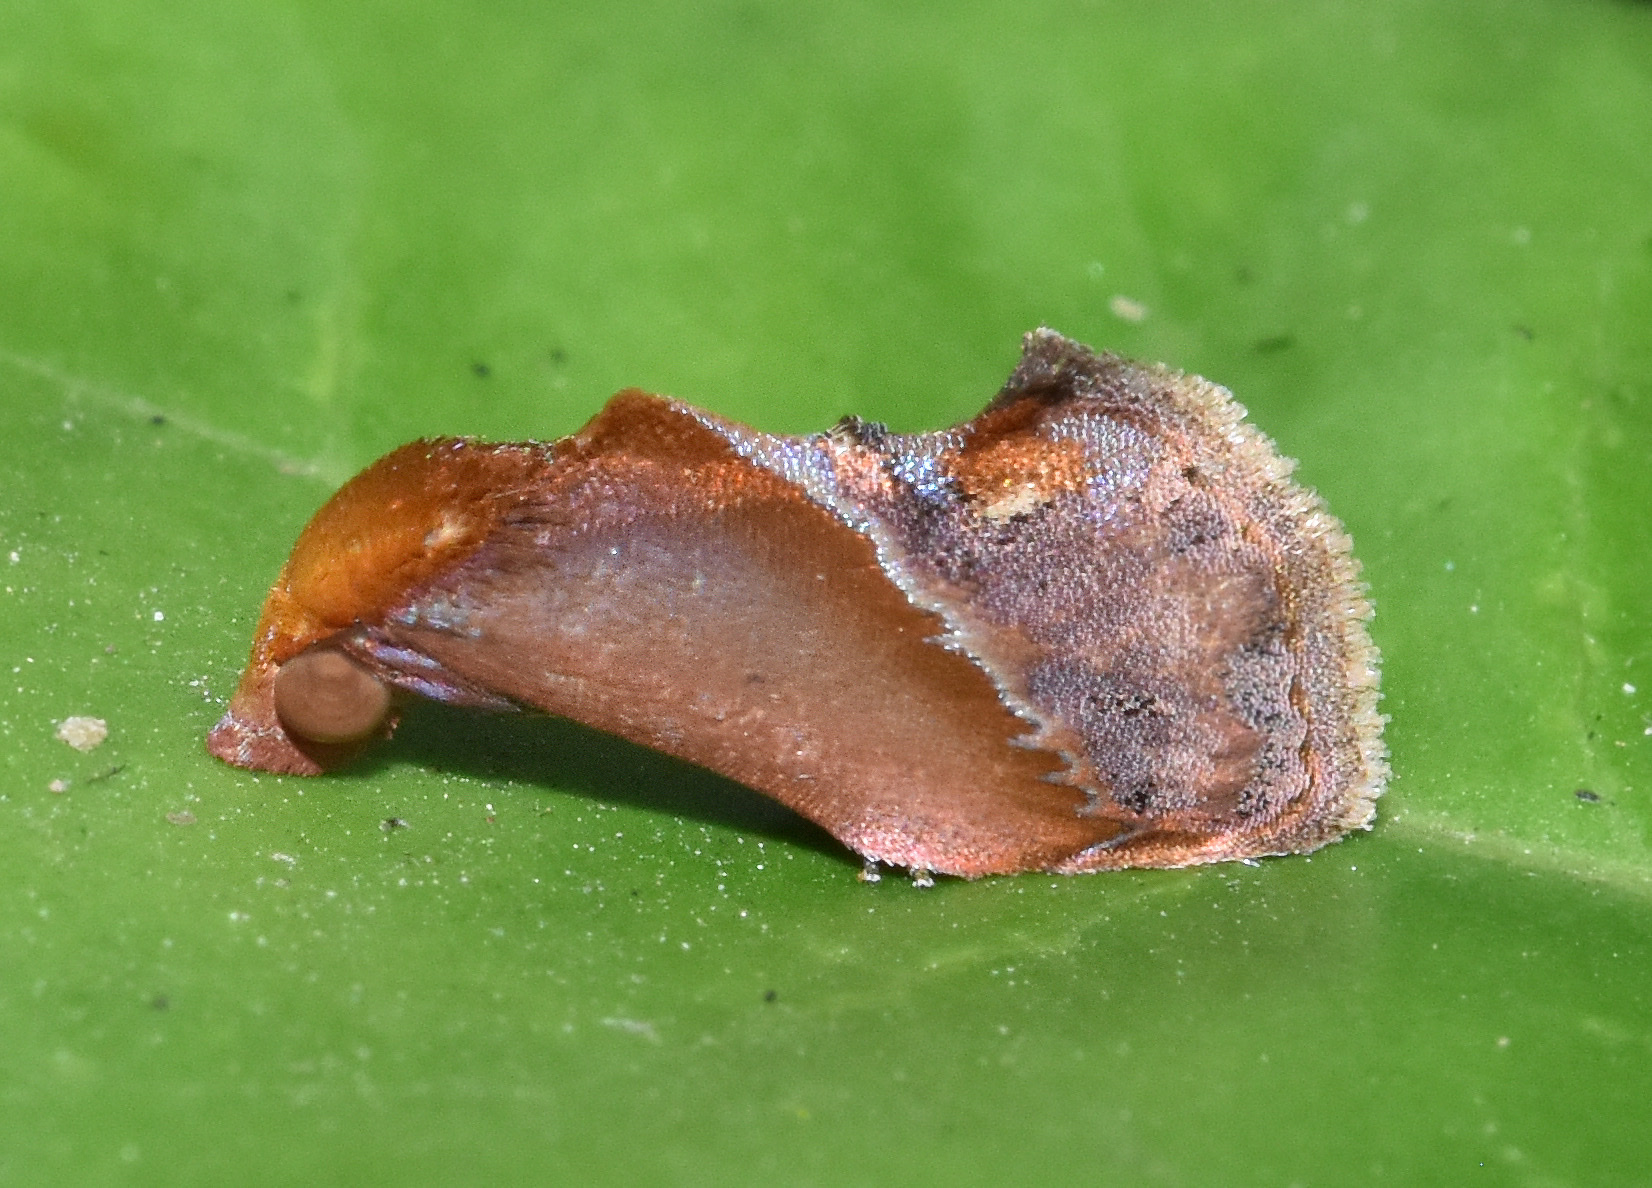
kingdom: Animalia
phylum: Arthropoda
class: Insecta
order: Lepidoptera
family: Erebidae
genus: Arsacia
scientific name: Arsacia rectalis
